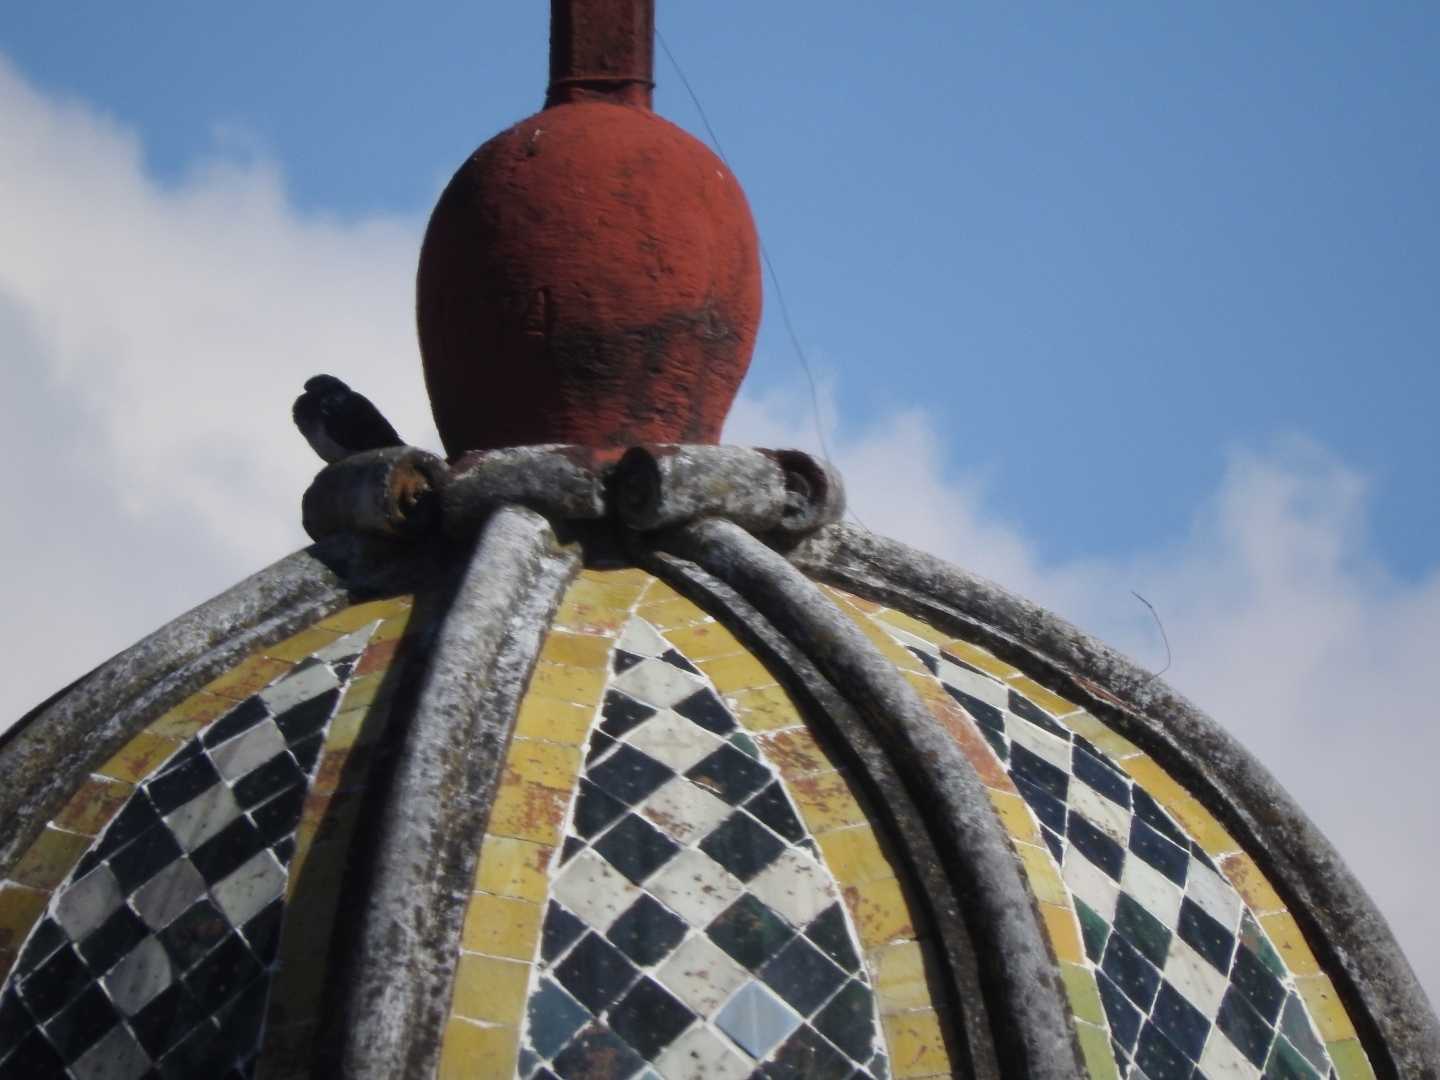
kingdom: Animalia
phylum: Chordata
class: Aves
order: Columbiformes
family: Columbidae
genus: Columba
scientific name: Columba livia
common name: Rock pigeon
